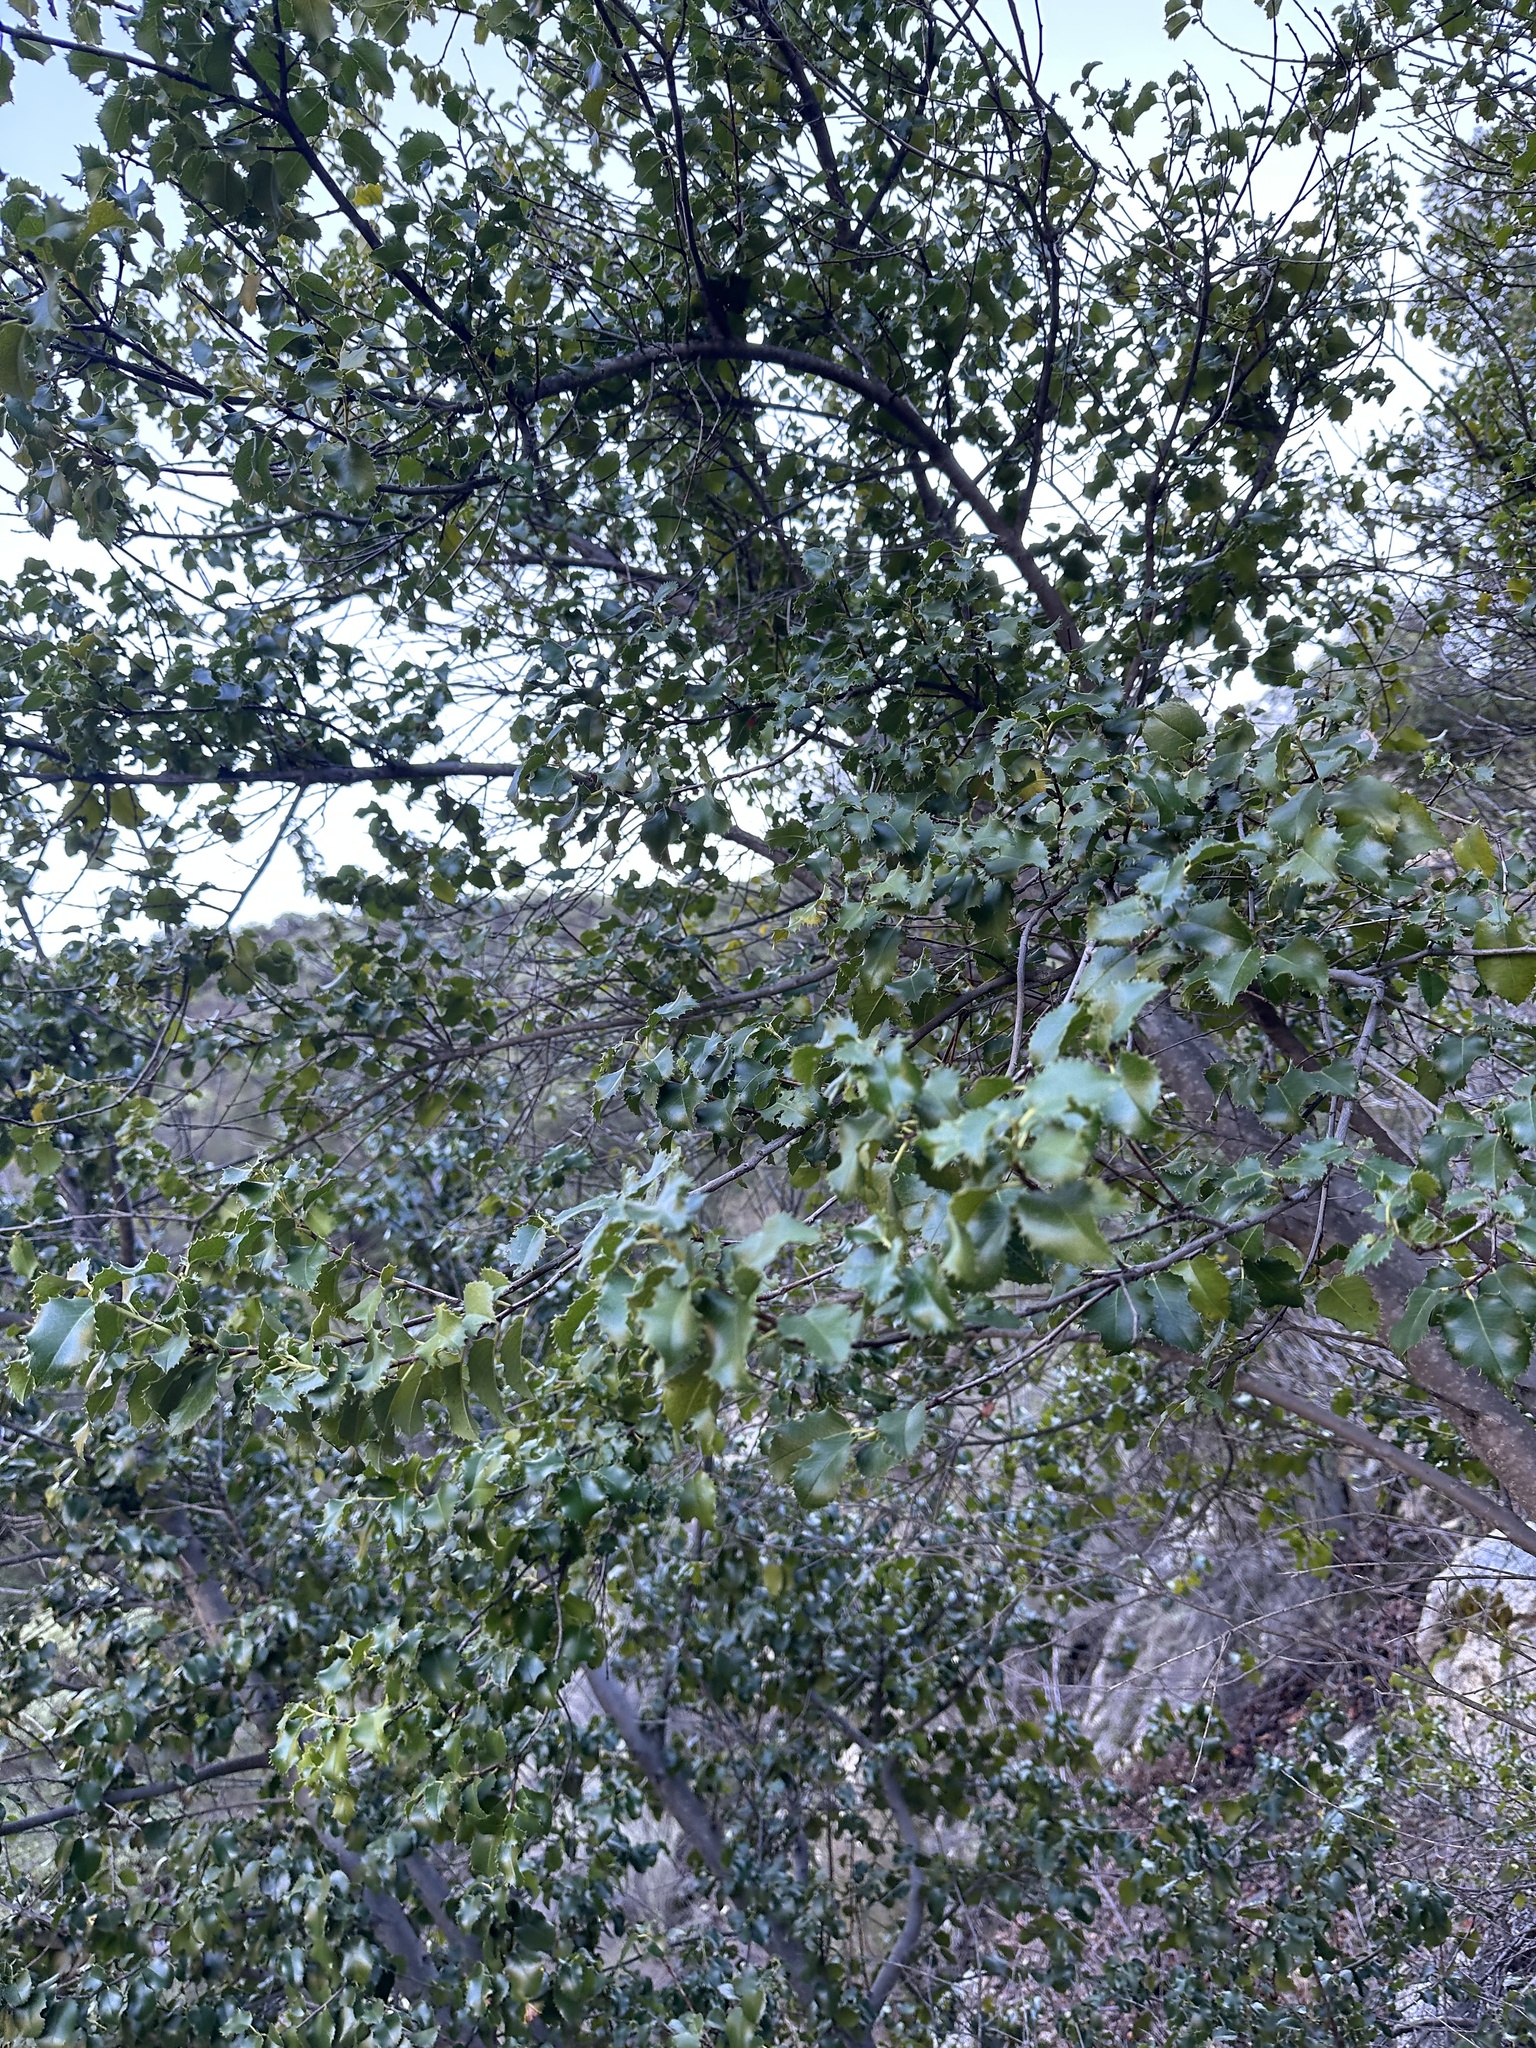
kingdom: Plantae
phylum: Tracheophyta
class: Magnoliopsida
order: Rosales
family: Rosaceae
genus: Prunus
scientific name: Prunus ilicifolia
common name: Hollyleaf cherry
